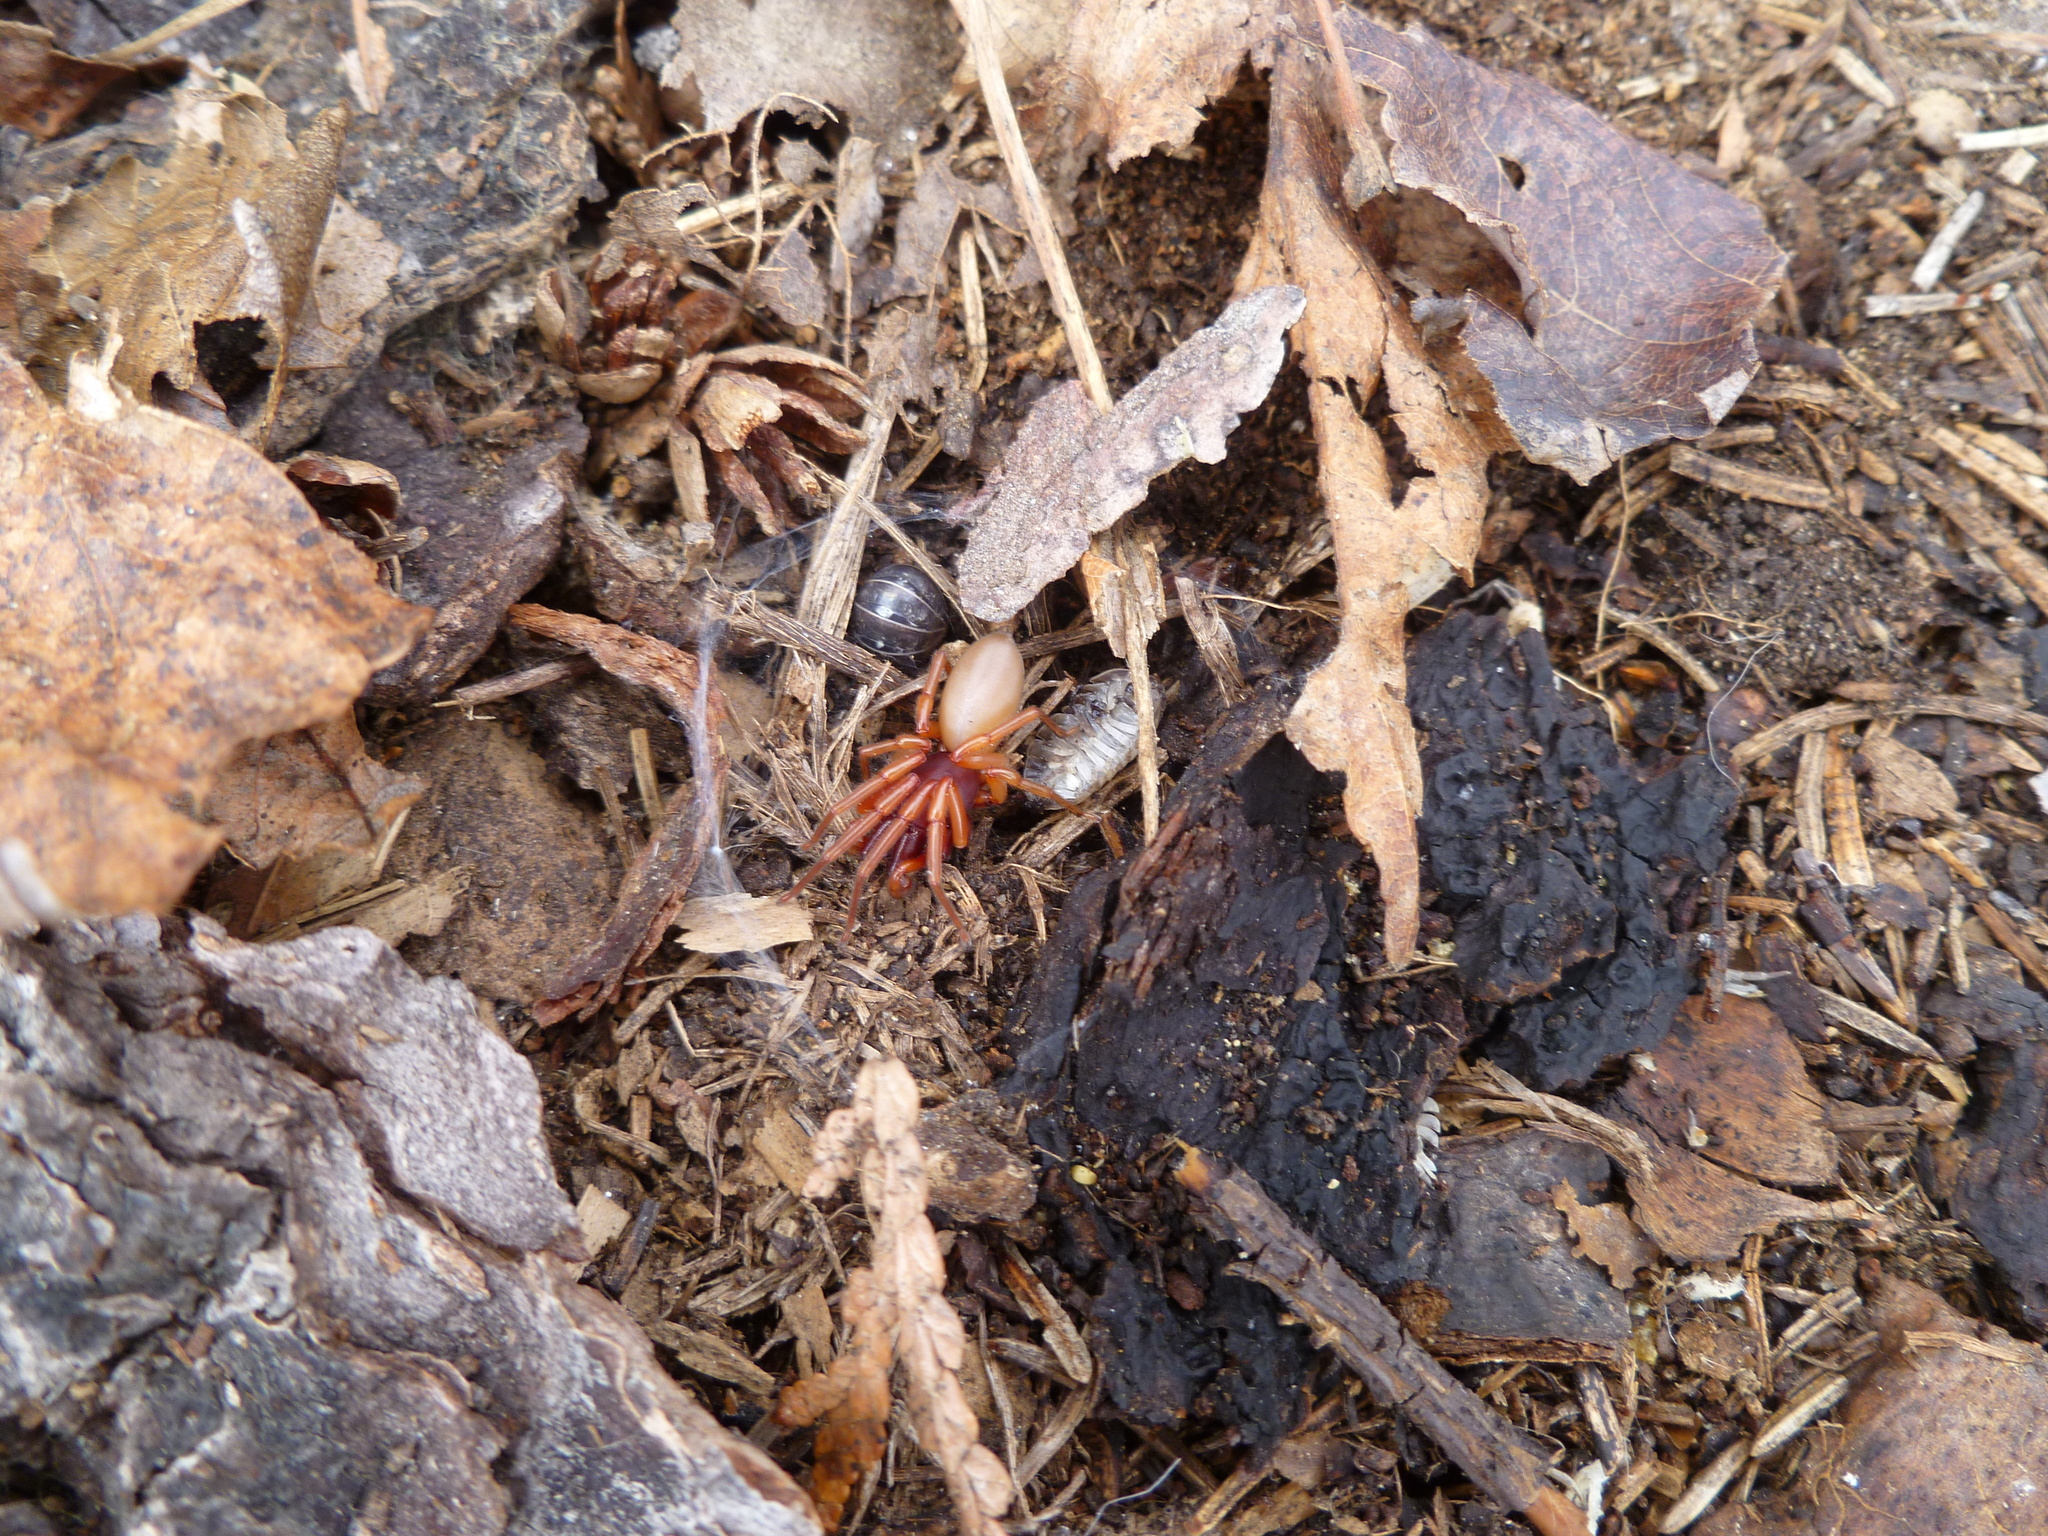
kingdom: Animalia
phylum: Arthropoda
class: Arachnida
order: Araneae
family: Dysderidae
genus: Dysdera
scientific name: Dysdera crocata
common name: Woodlouse spider
